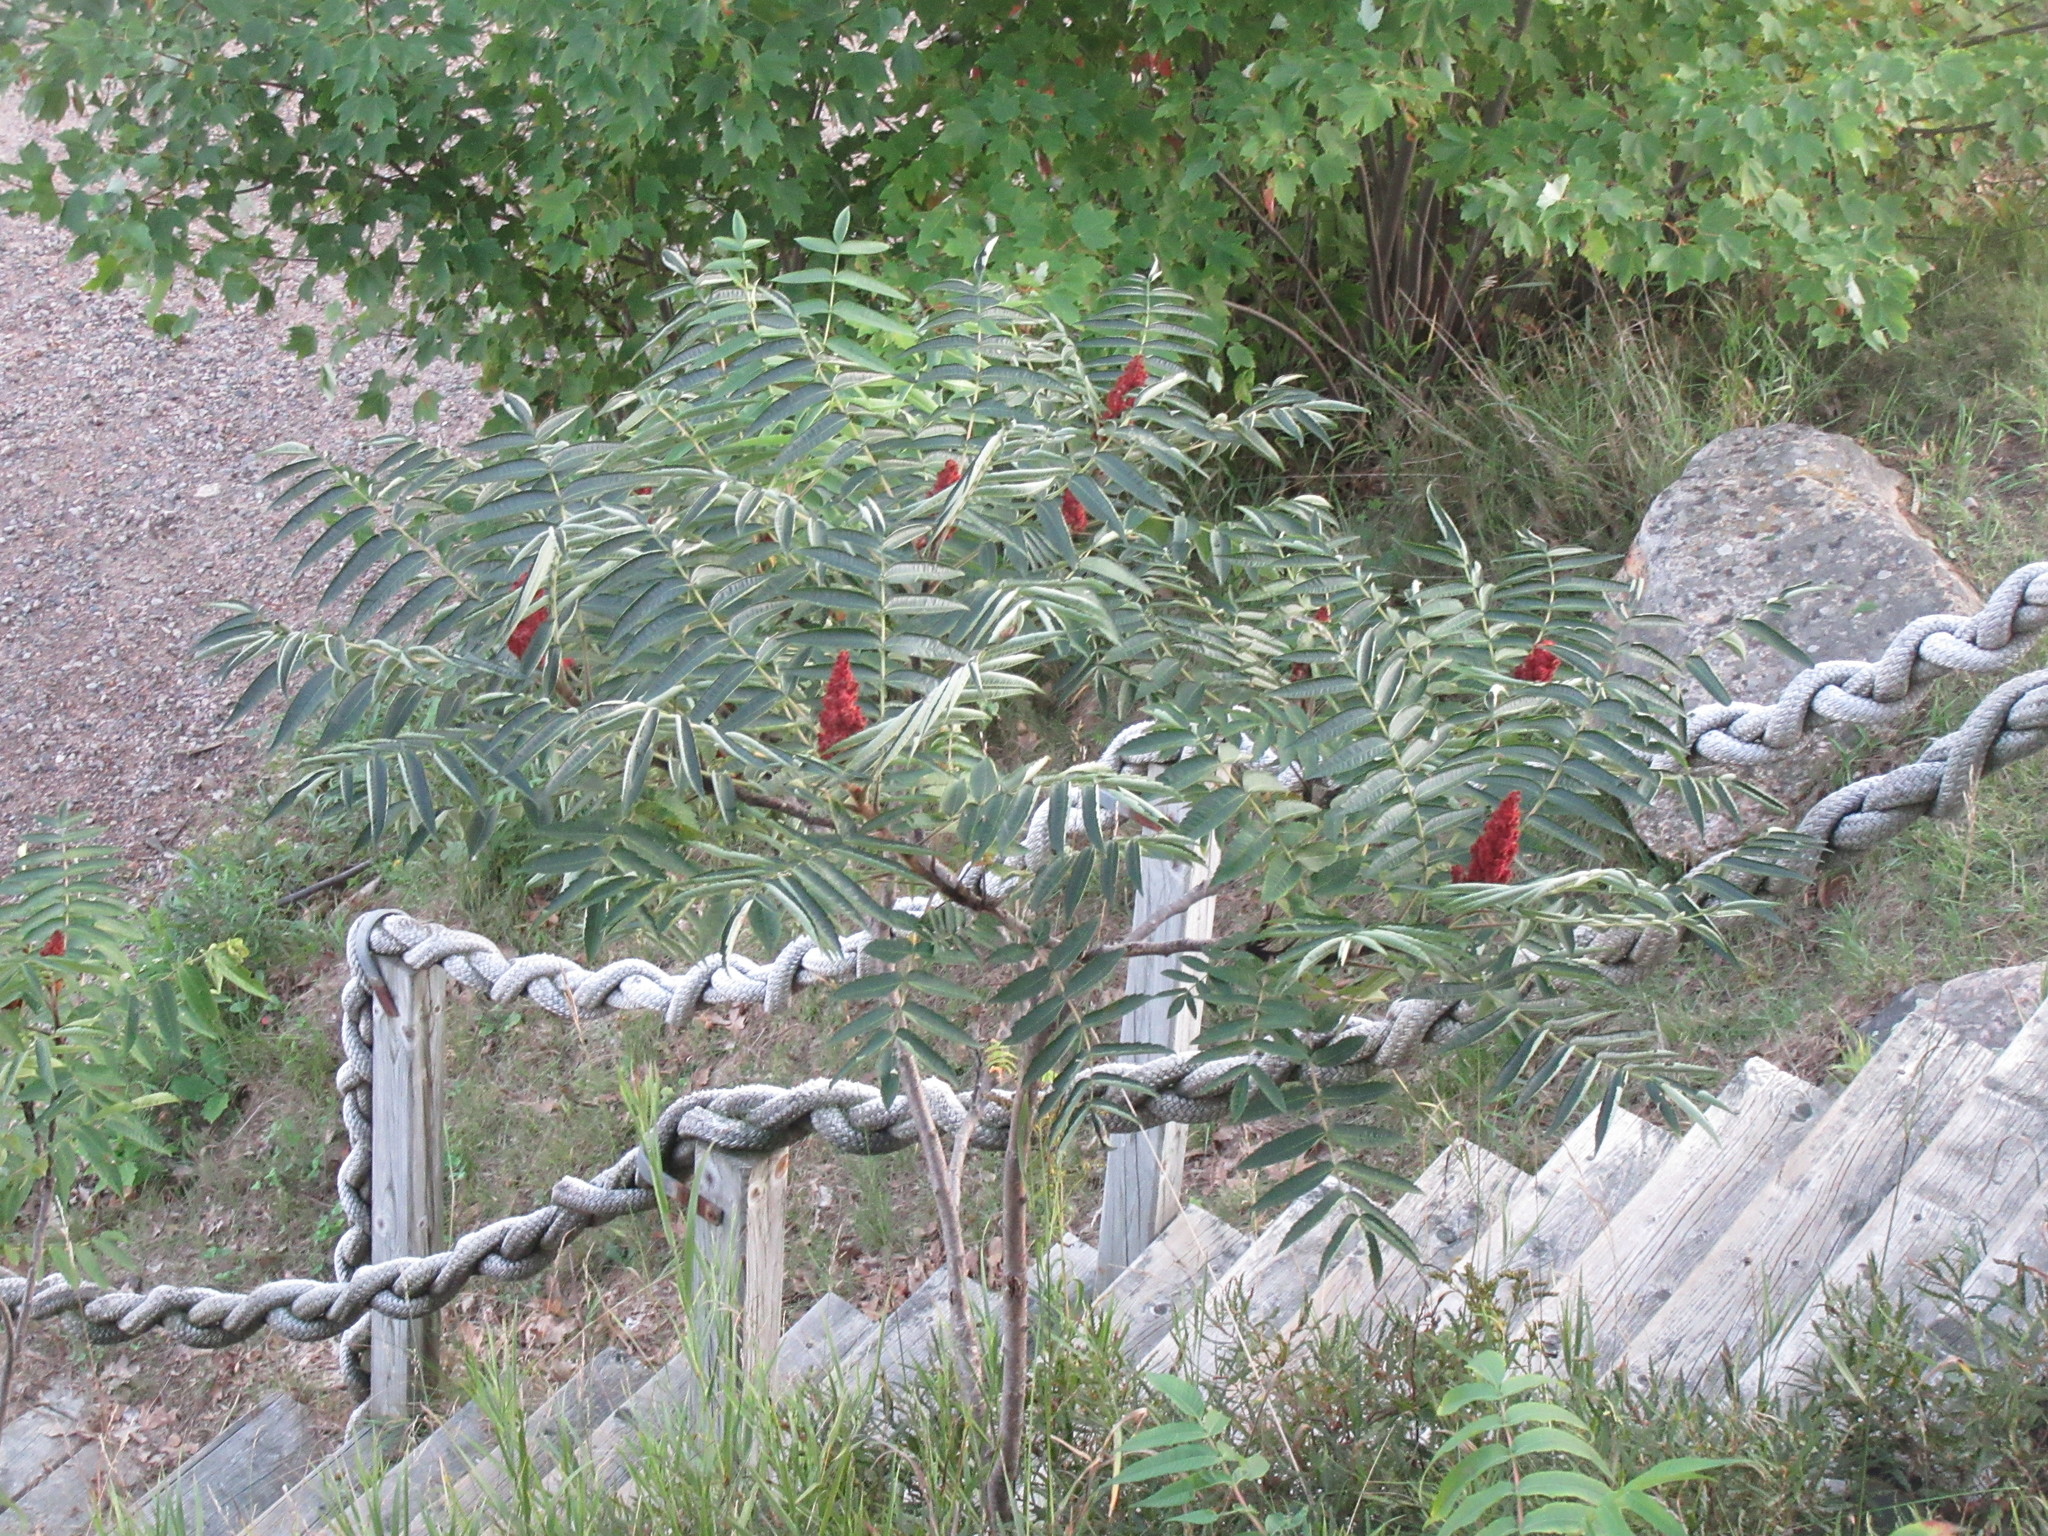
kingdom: Plantae
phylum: Tracheophyta
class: Magnoliopsida
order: Sapindales
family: Anacardiaceae
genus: Rhus
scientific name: Rhus typhina
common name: Staghorn sumac
